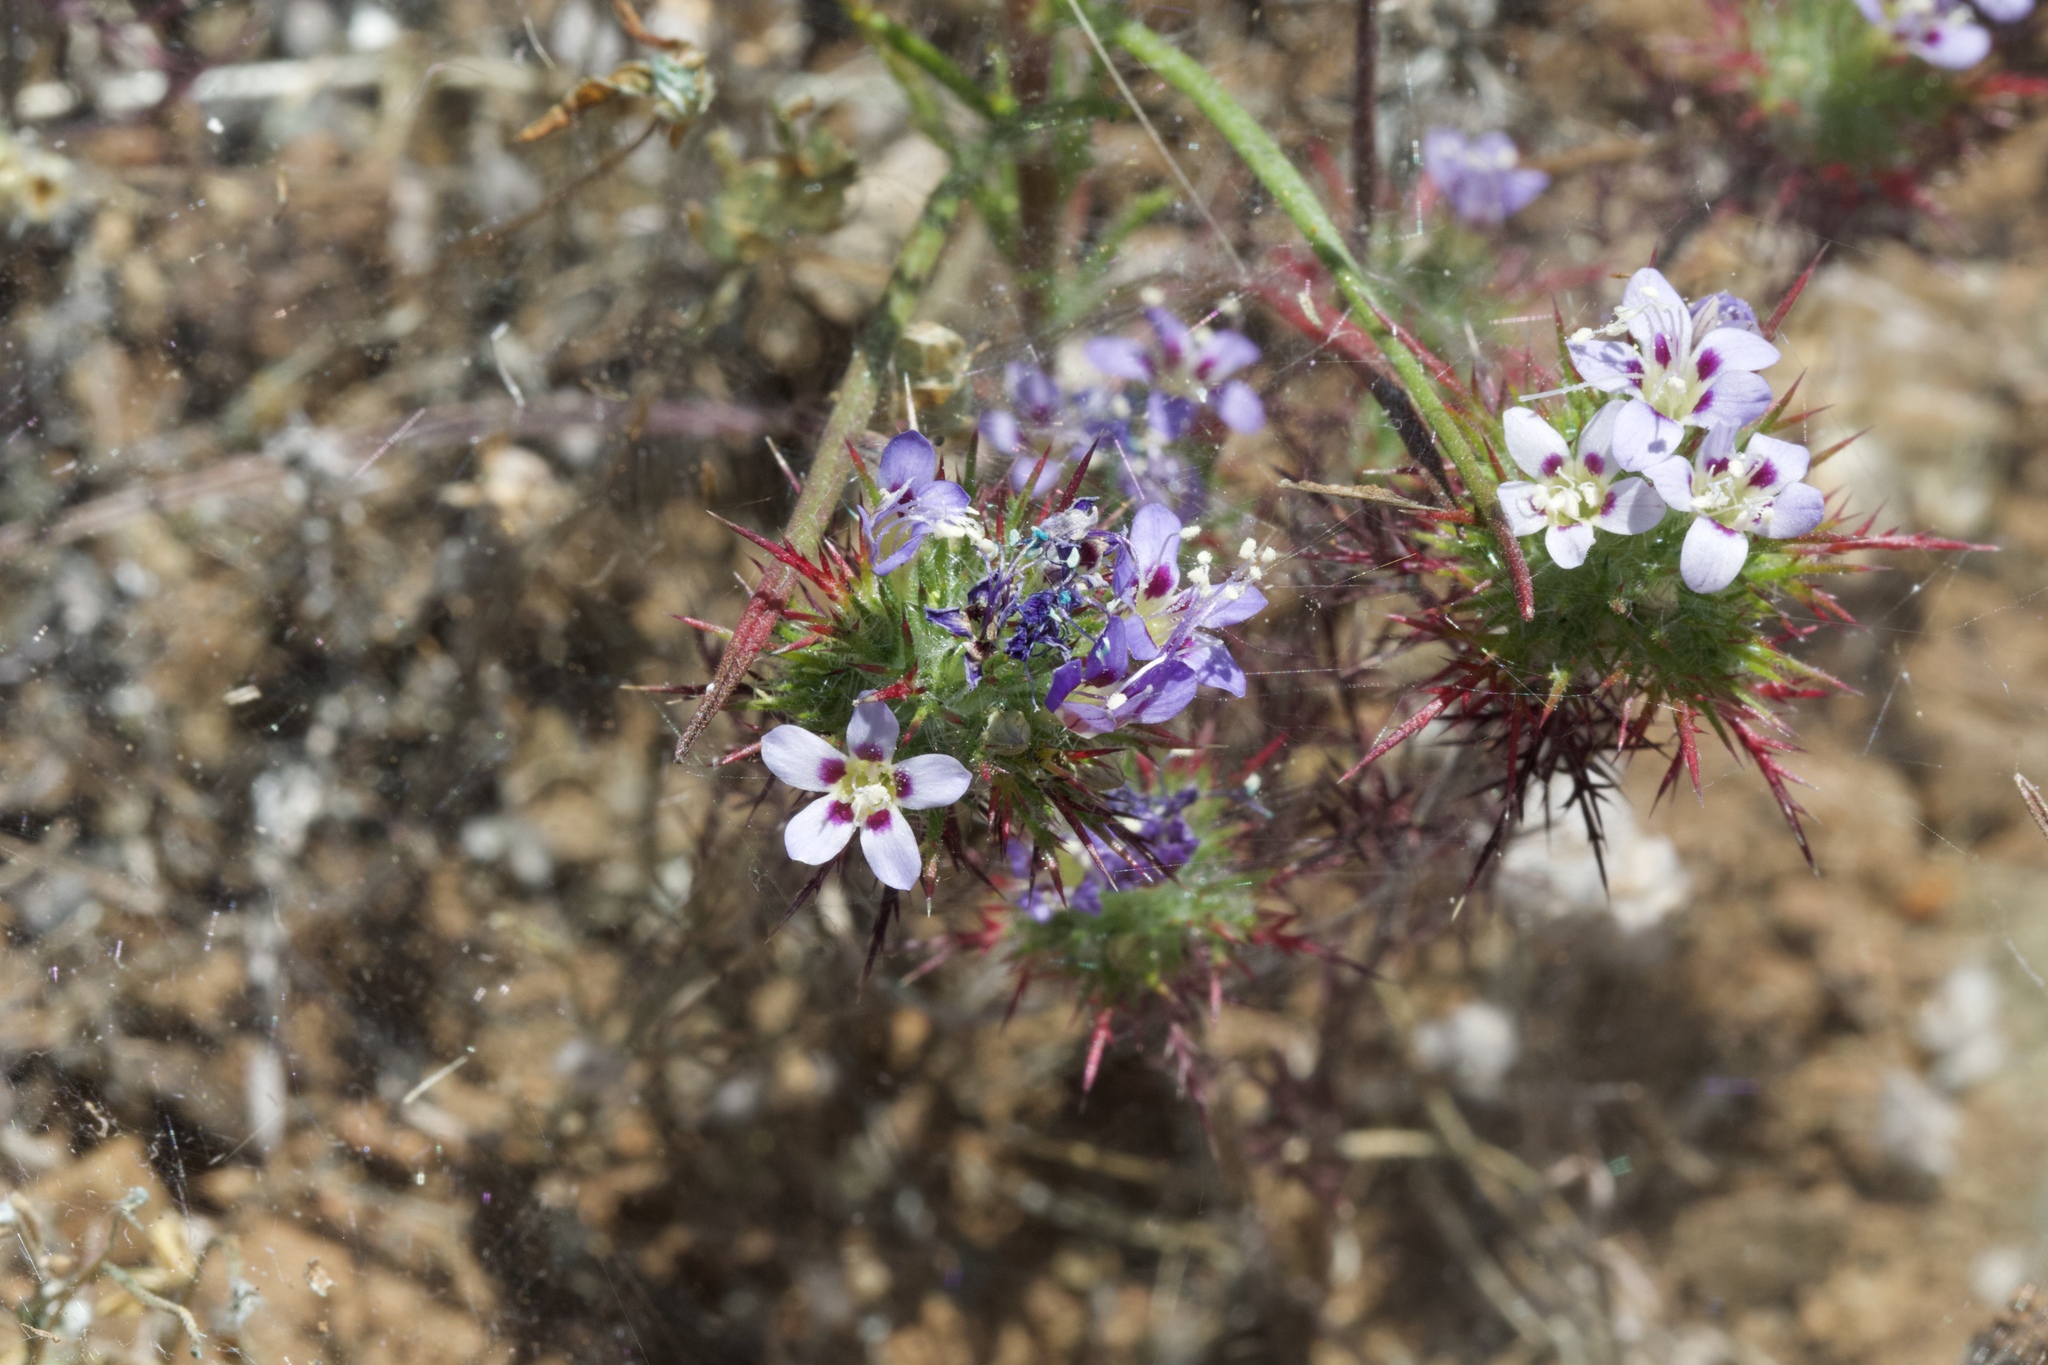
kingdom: Plantae
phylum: Tracheophyta
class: Magnoliopsida
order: Ericales
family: Polemoniaceae
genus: Navarretia
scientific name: Navarretia jepsonii
